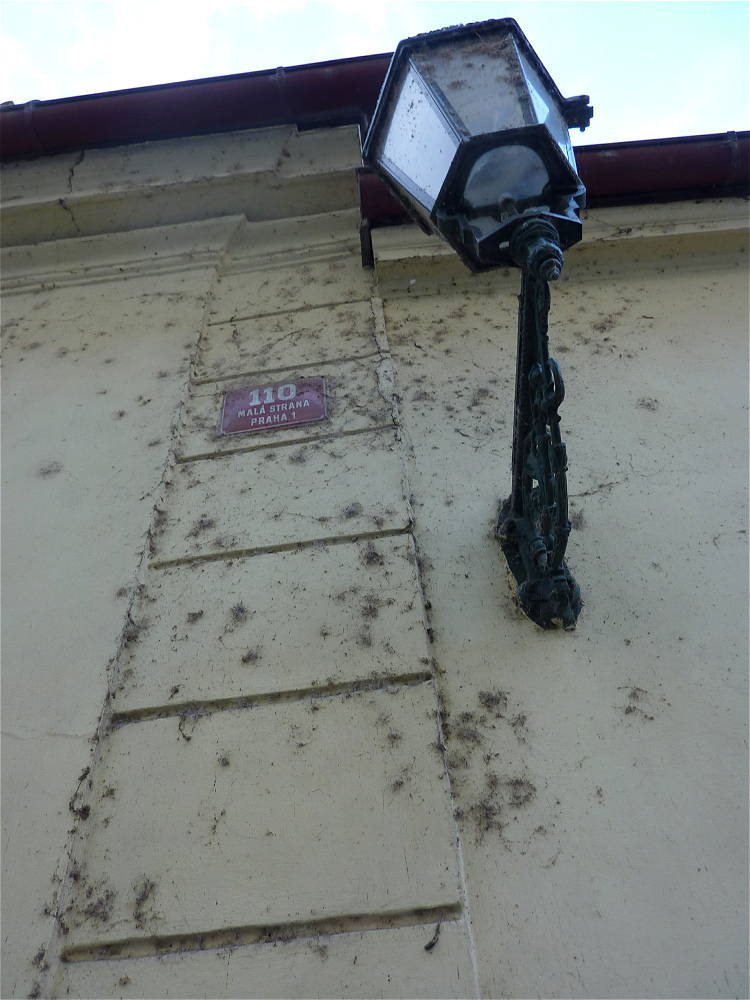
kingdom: Animalia
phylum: Arthropoda
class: Arachnida
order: Araneae
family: Dictynidae
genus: Brigittea
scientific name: Brigittea civica
